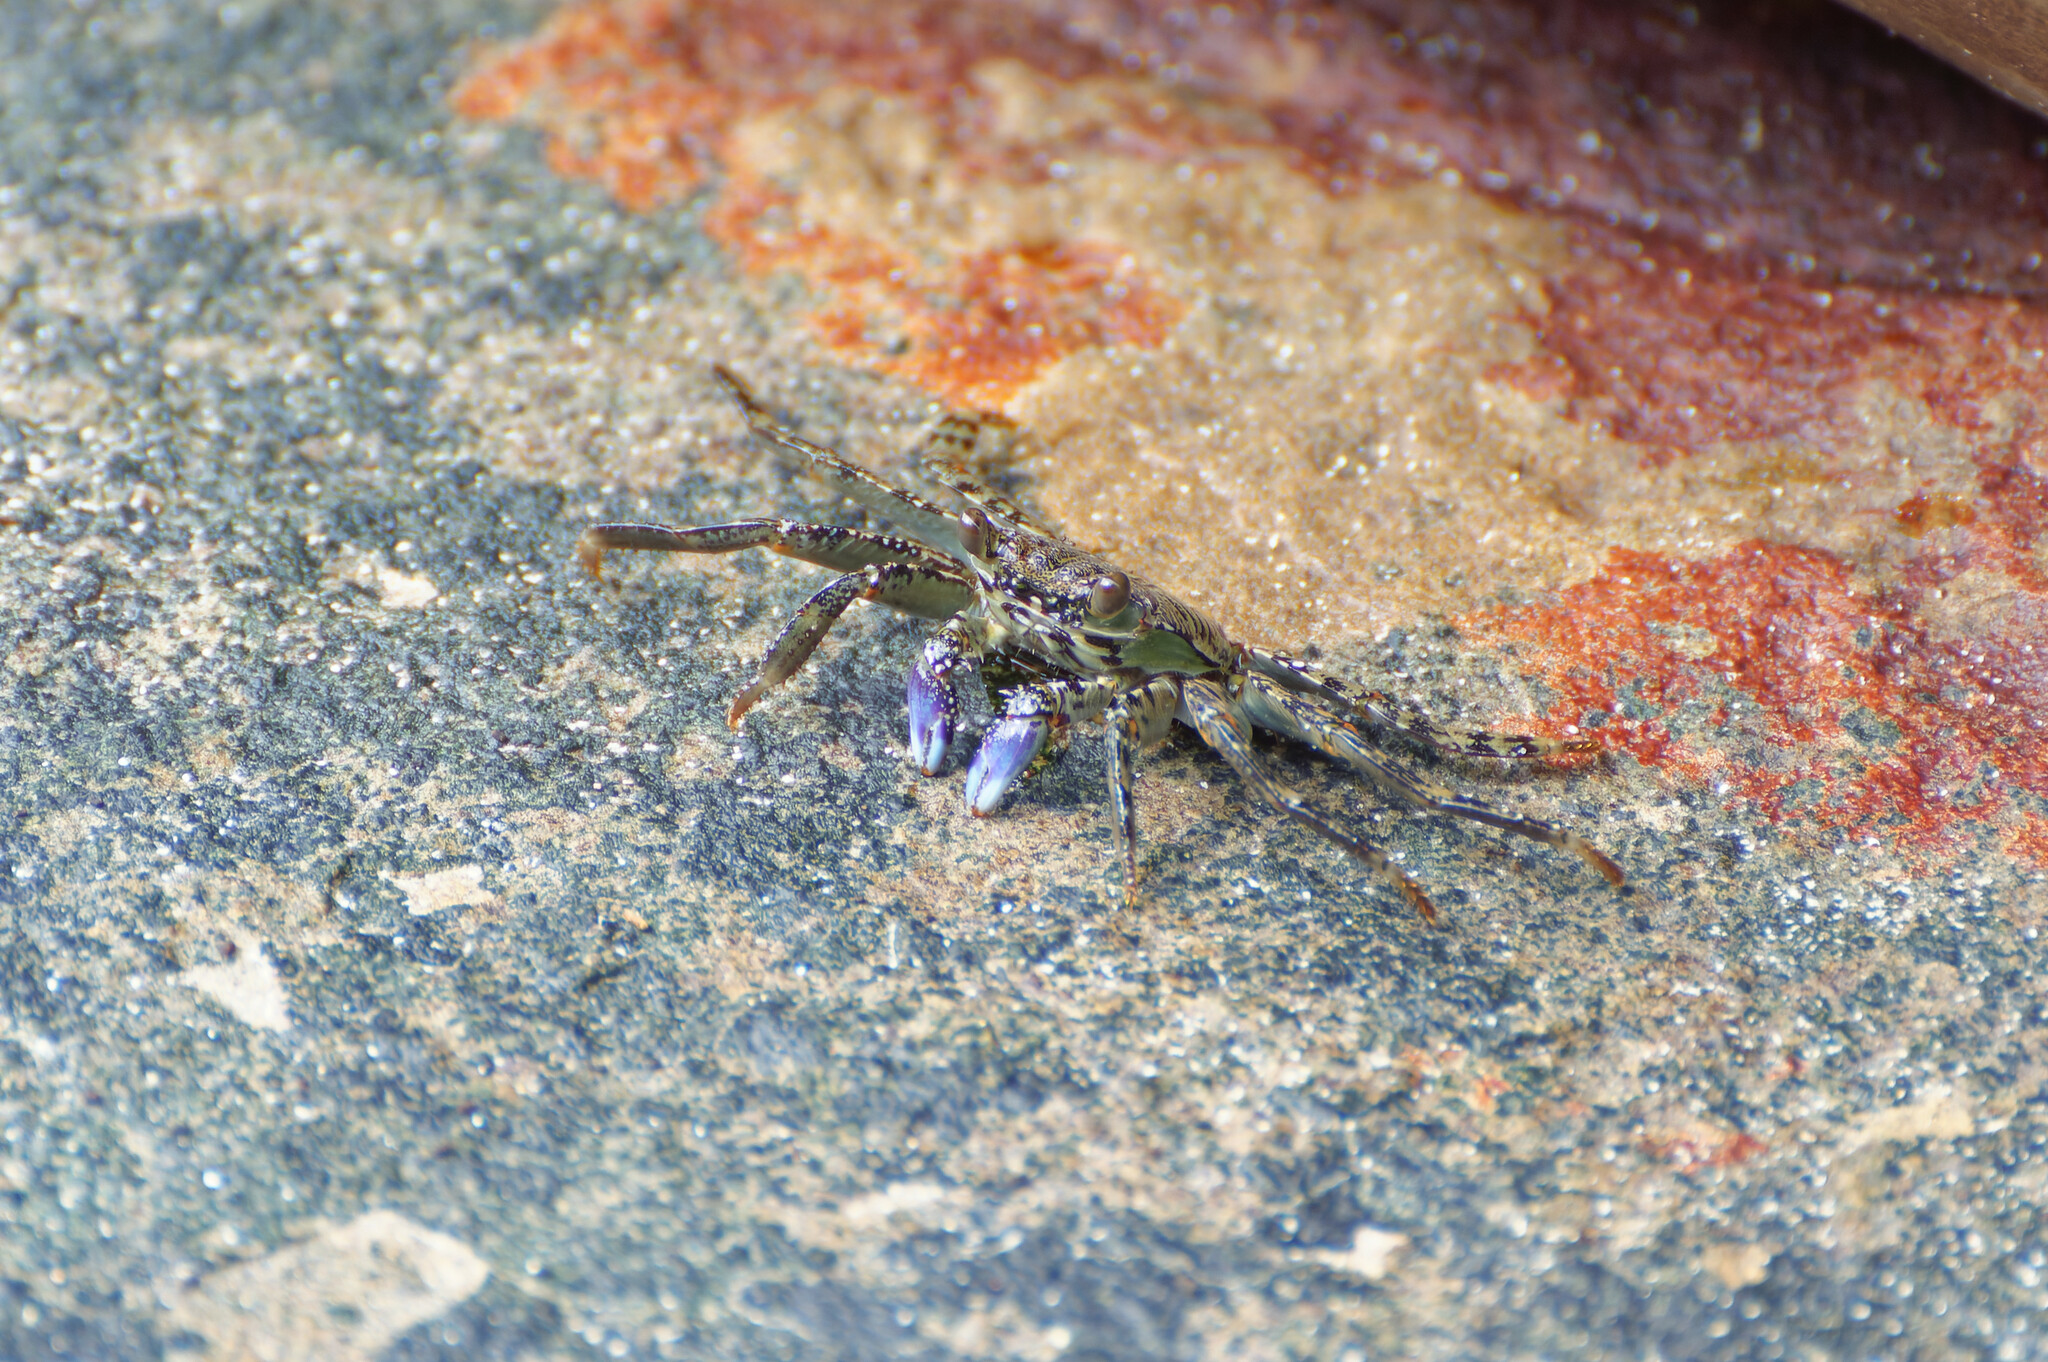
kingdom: Animalia
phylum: Arthropoda
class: Malacostraca
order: Decapoda
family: Grapsidae
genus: Grapsus
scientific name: Grapsus albolineatus
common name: Mottled lightfoot crab
